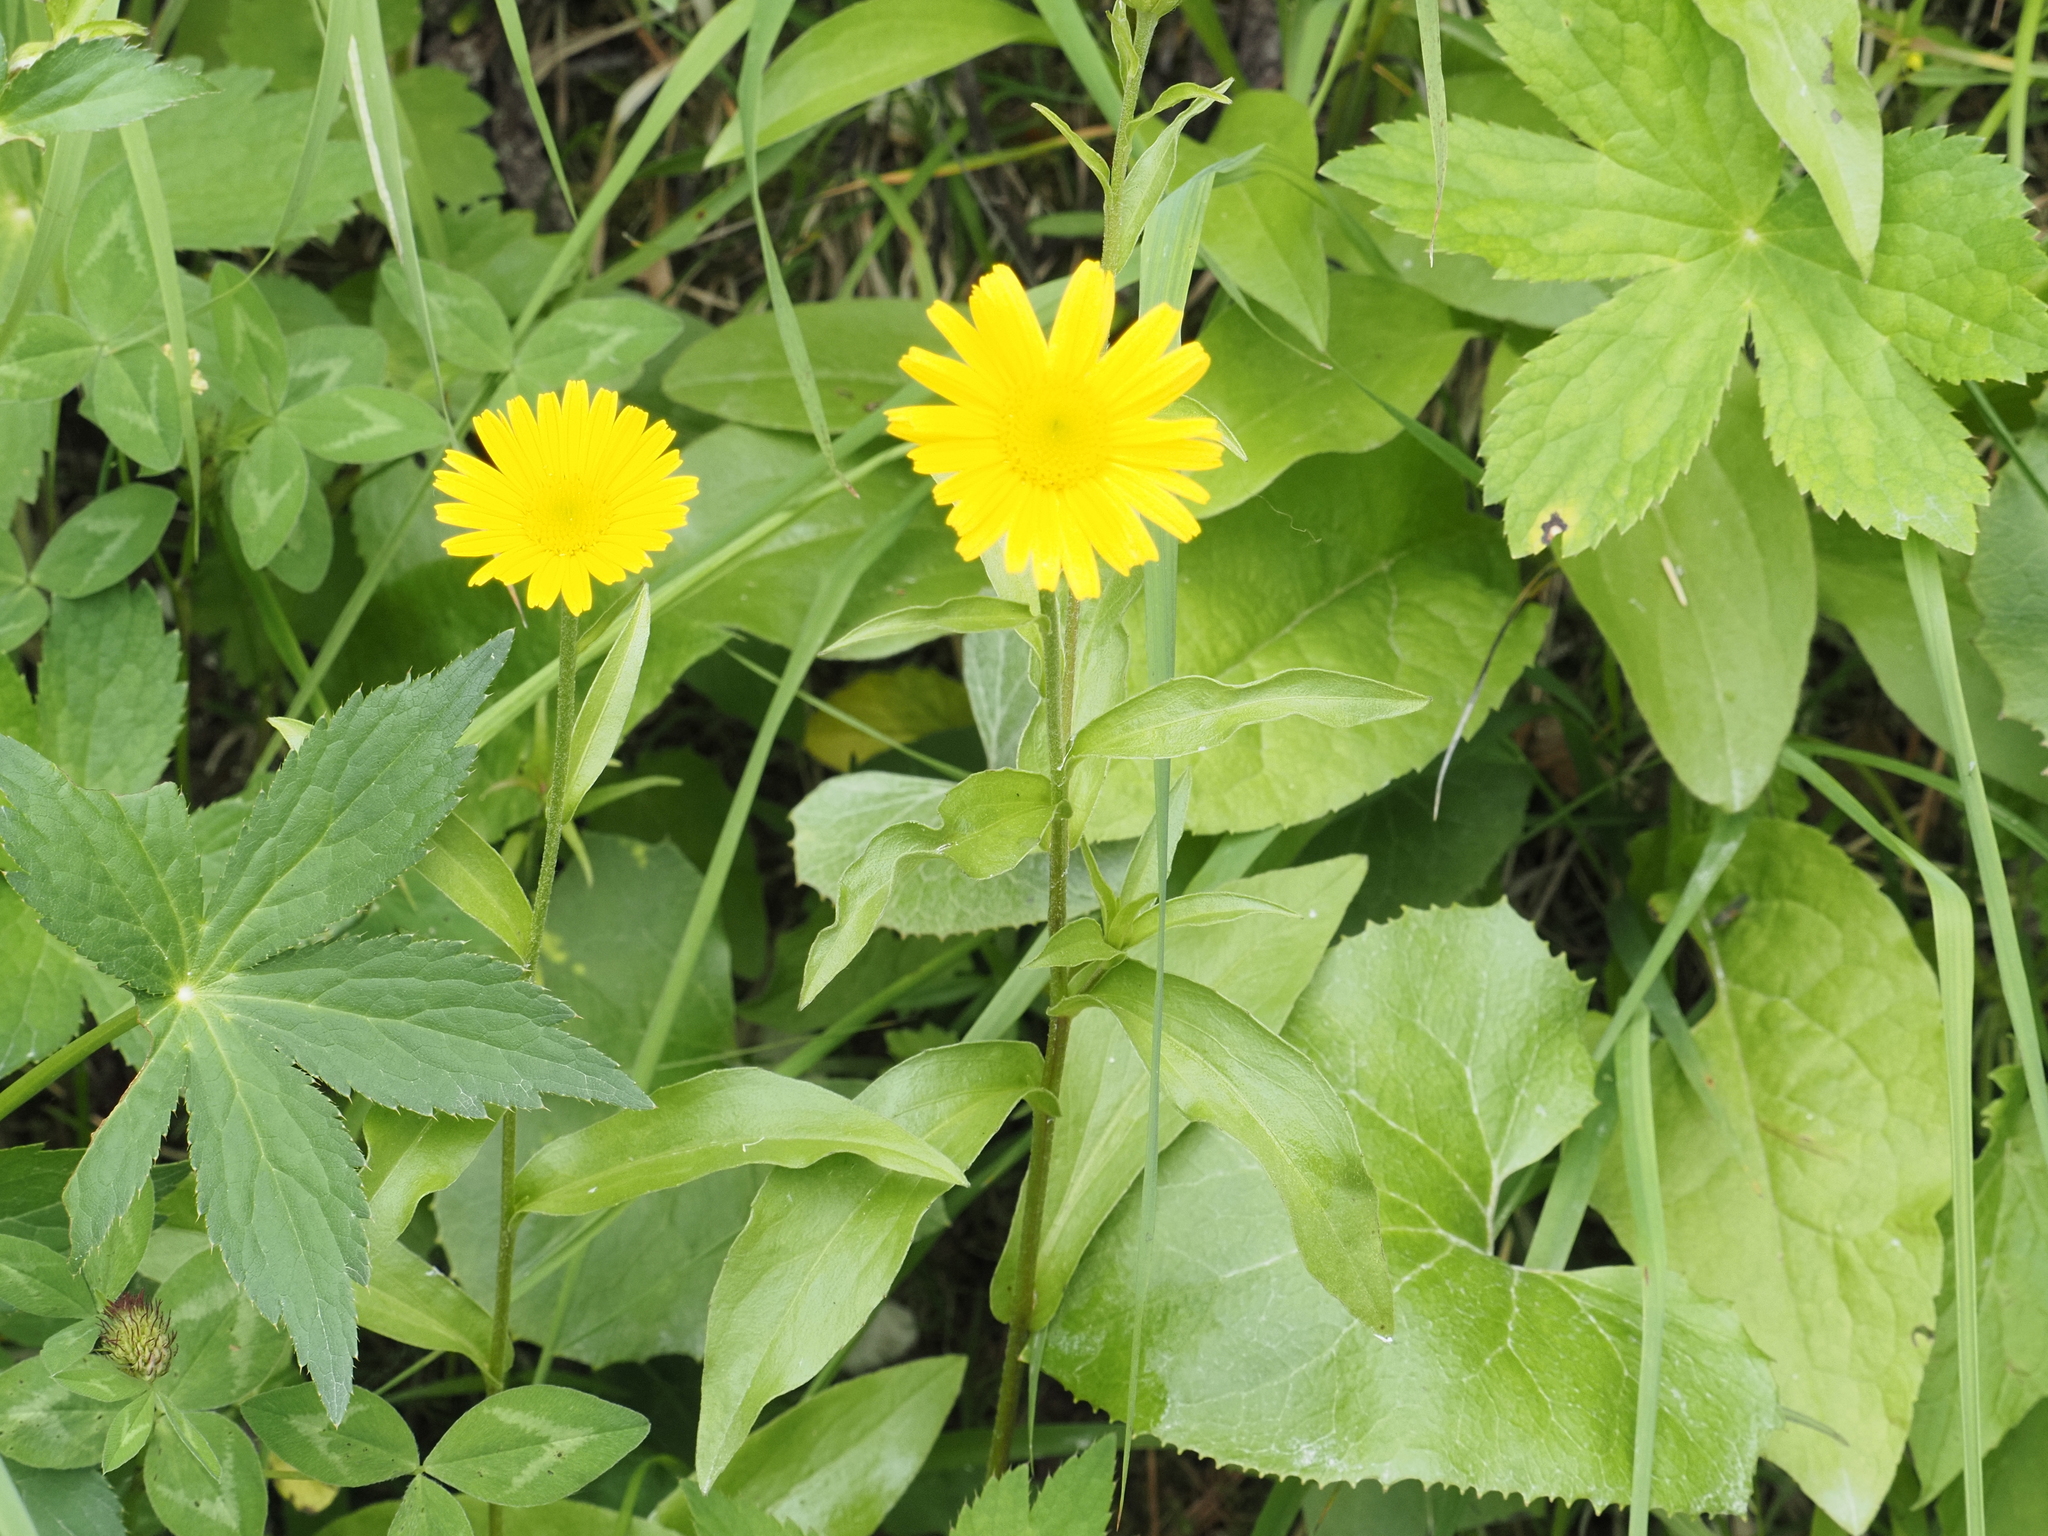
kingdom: Plantae
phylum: Tracheophyta
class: Magnoliopsida
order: Asterales
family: Asteraceae
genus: Buphthalmum
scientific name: Buphthalmum salicifolium
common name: Willow-leaved yellow-oxeye
